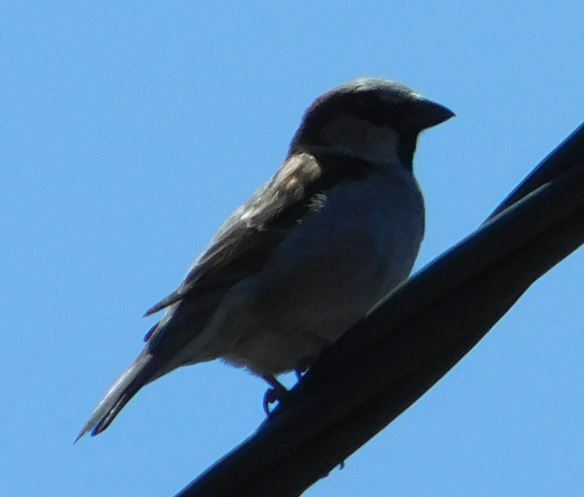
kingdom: Animalia
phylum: Chordata
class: Aves
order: Passeriformes
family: Passeridae
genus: Passer
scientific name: Passer domesticus
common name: House sparrow
